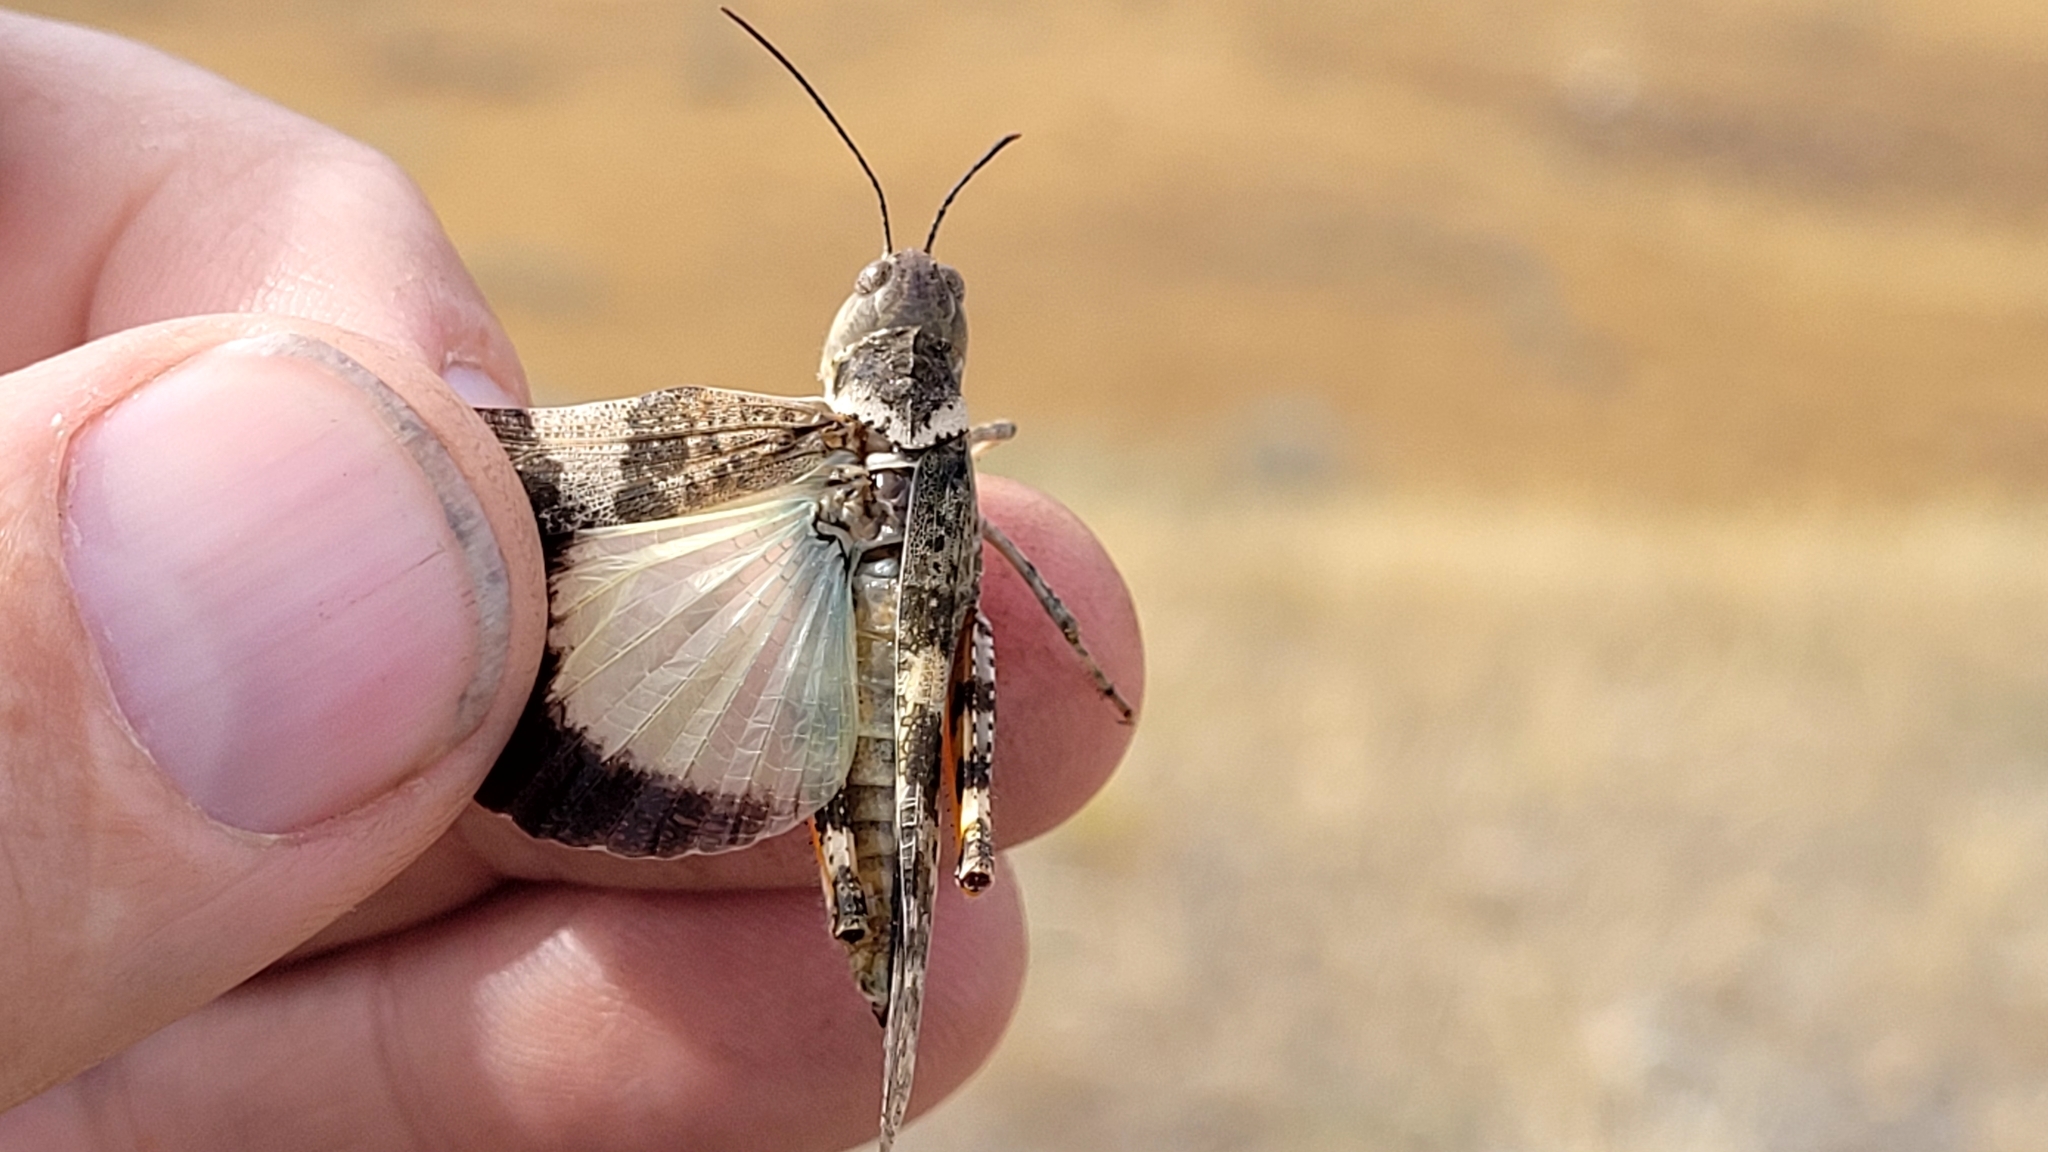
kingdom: Animalia
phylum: Arthropoda
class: Insecta
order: Orthoptera
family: Acrididae
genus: Spharagemon
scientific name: Spharagemon equale
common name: Orange-legged grasshopper
